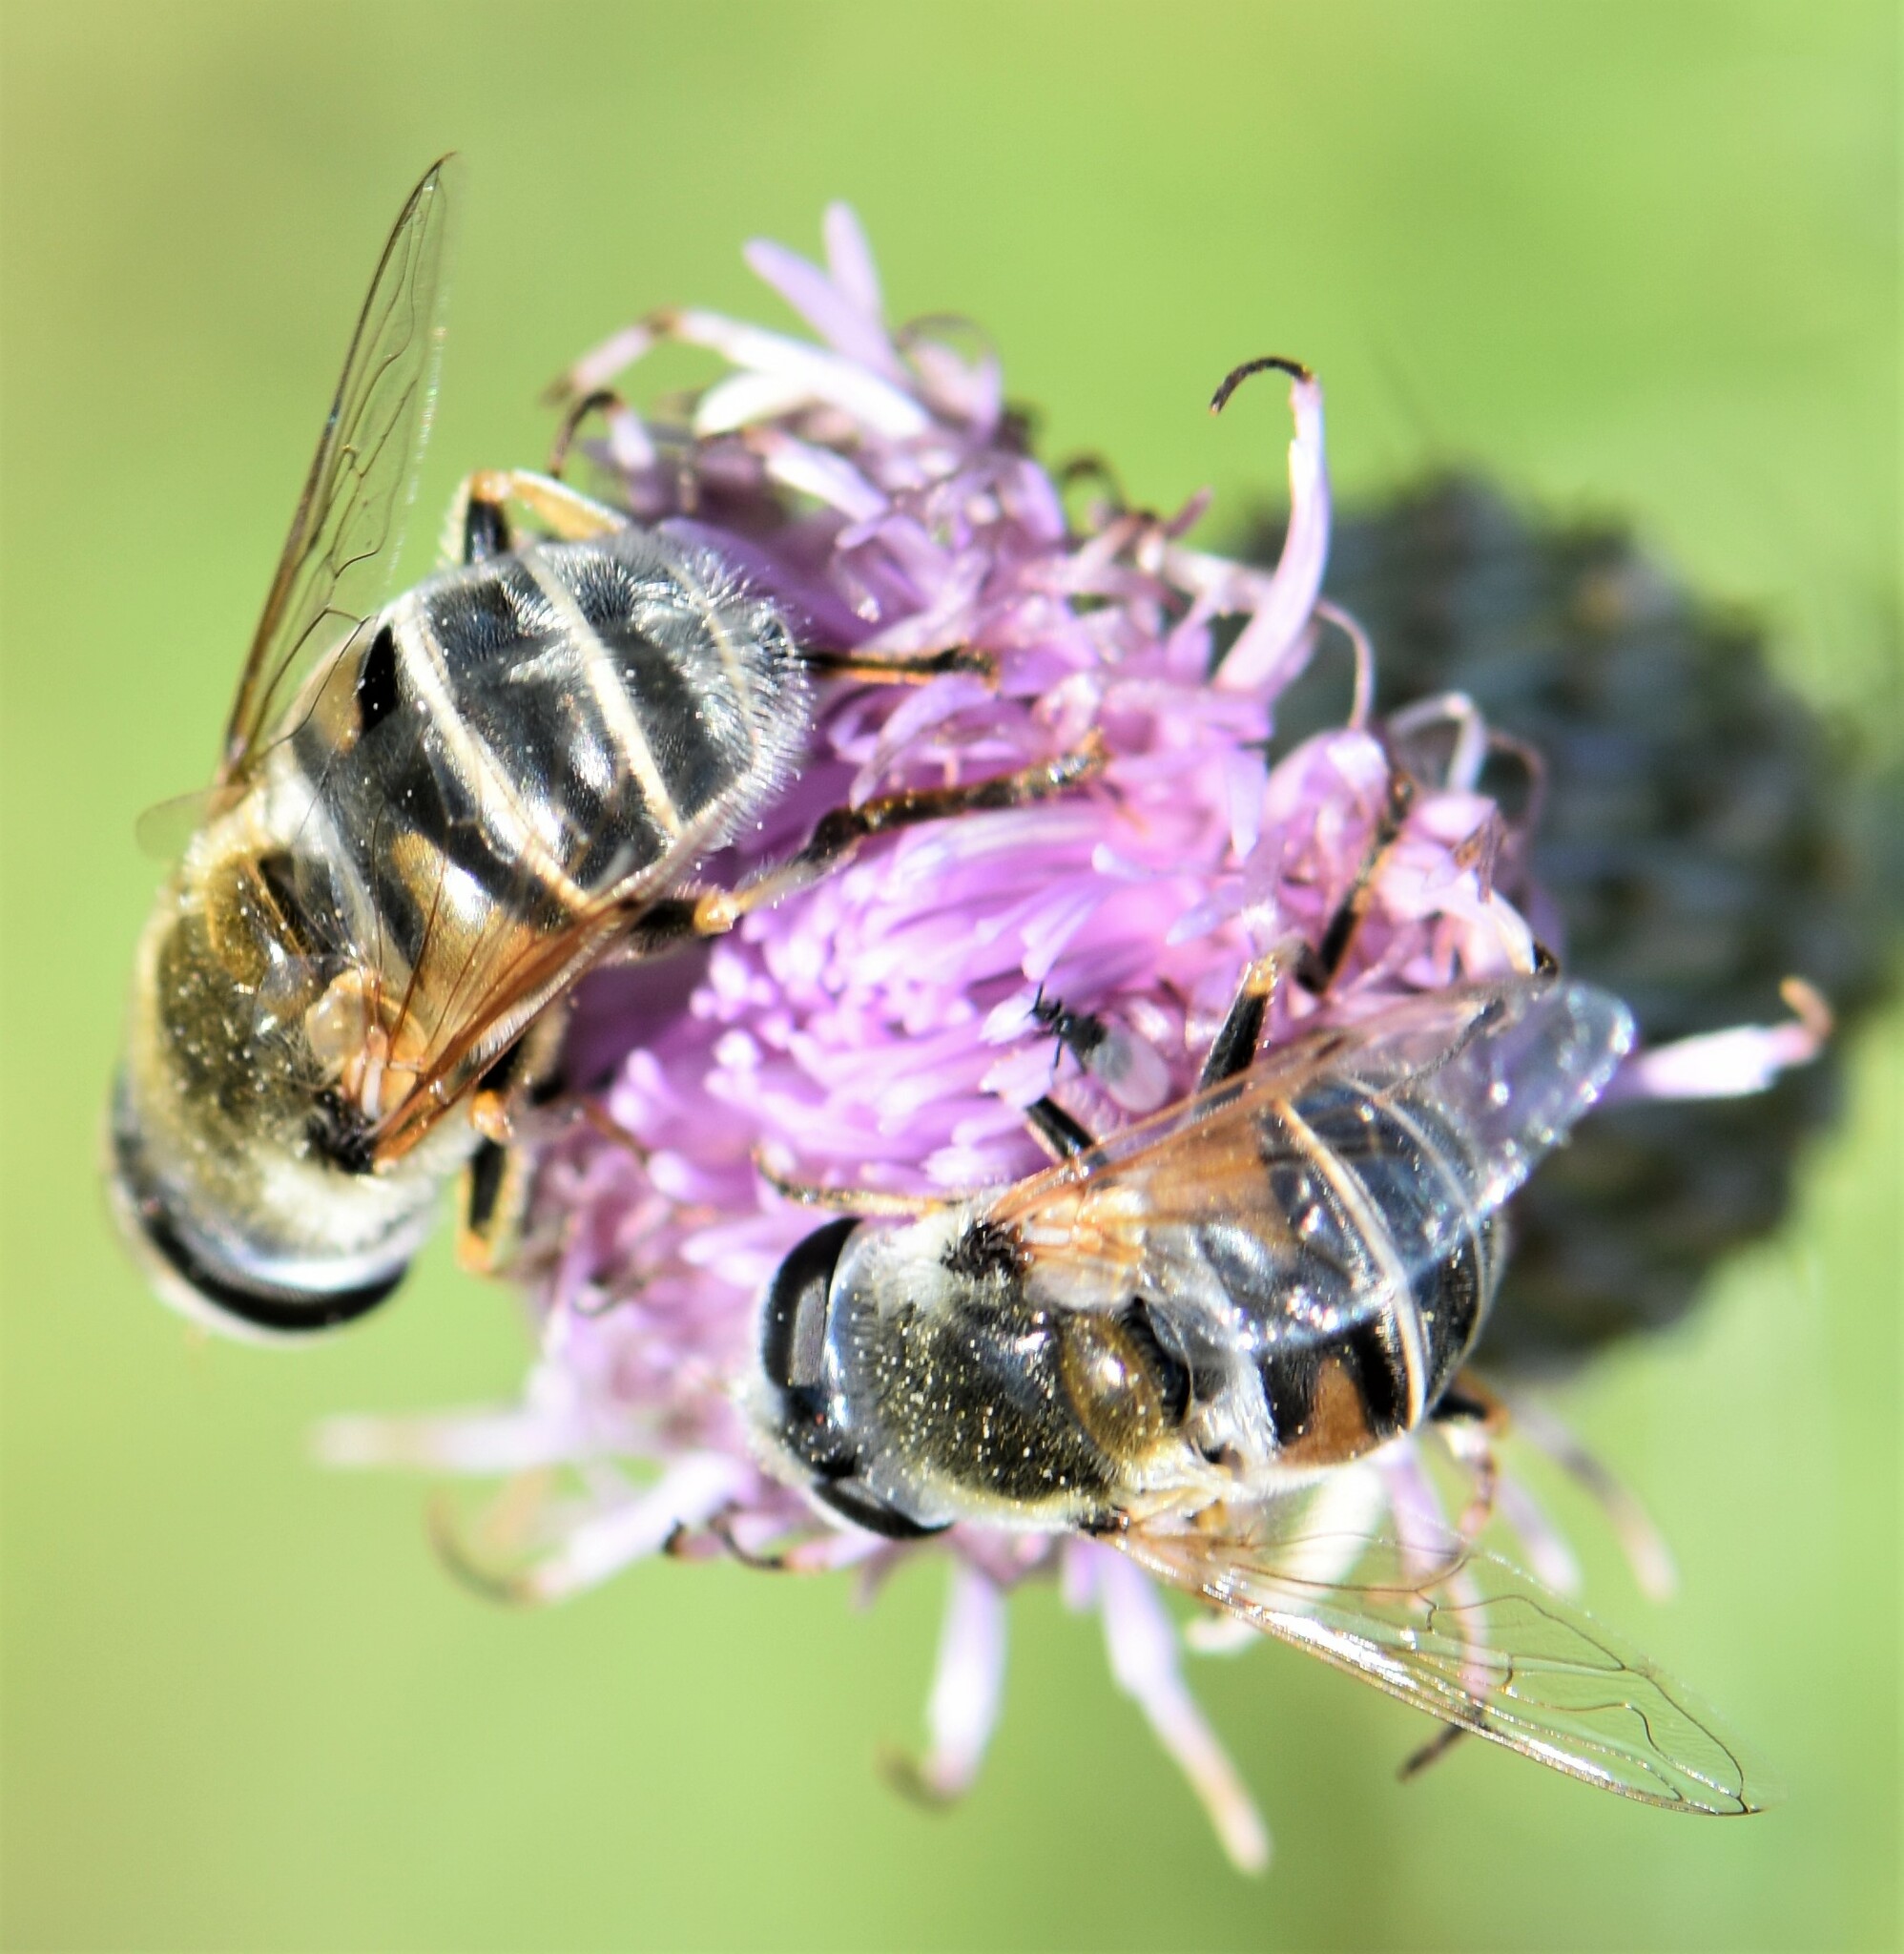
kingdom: Animalia
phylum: Arthropoda
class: Insecta
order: Diptera
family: Syrphidae
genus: Eristalis
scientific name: Eristalis stipator
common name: Yellow-shouldered drone fly
